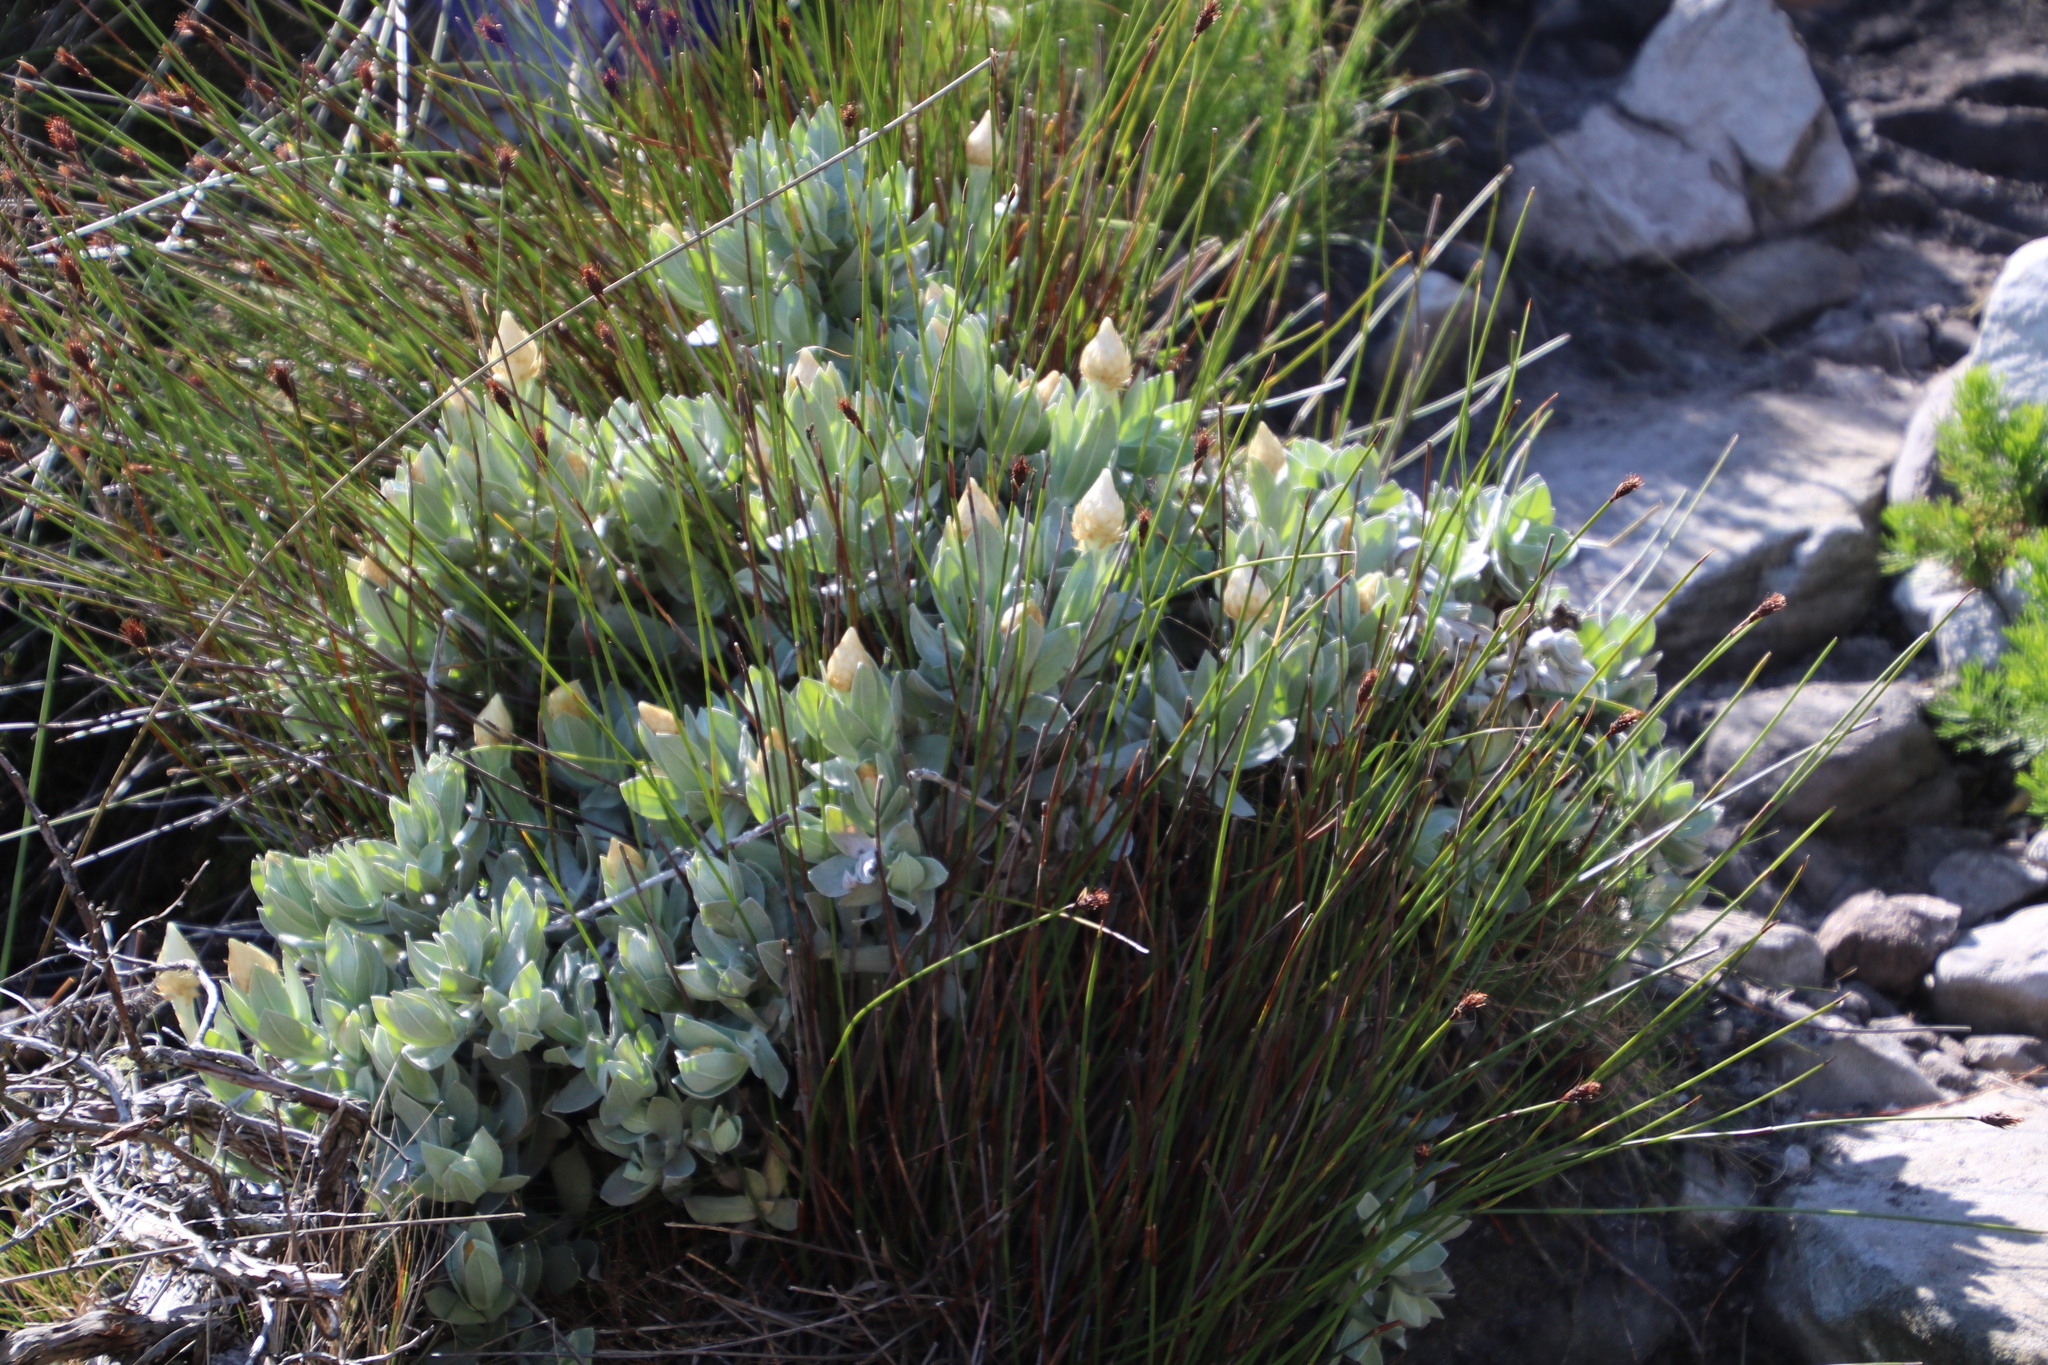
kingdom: Plantae
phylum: Tracheophyta
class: Magnoliopsida
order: Asterales
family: Asteraceae
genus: Syncarpha
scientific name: Syncarpha speciosissima
